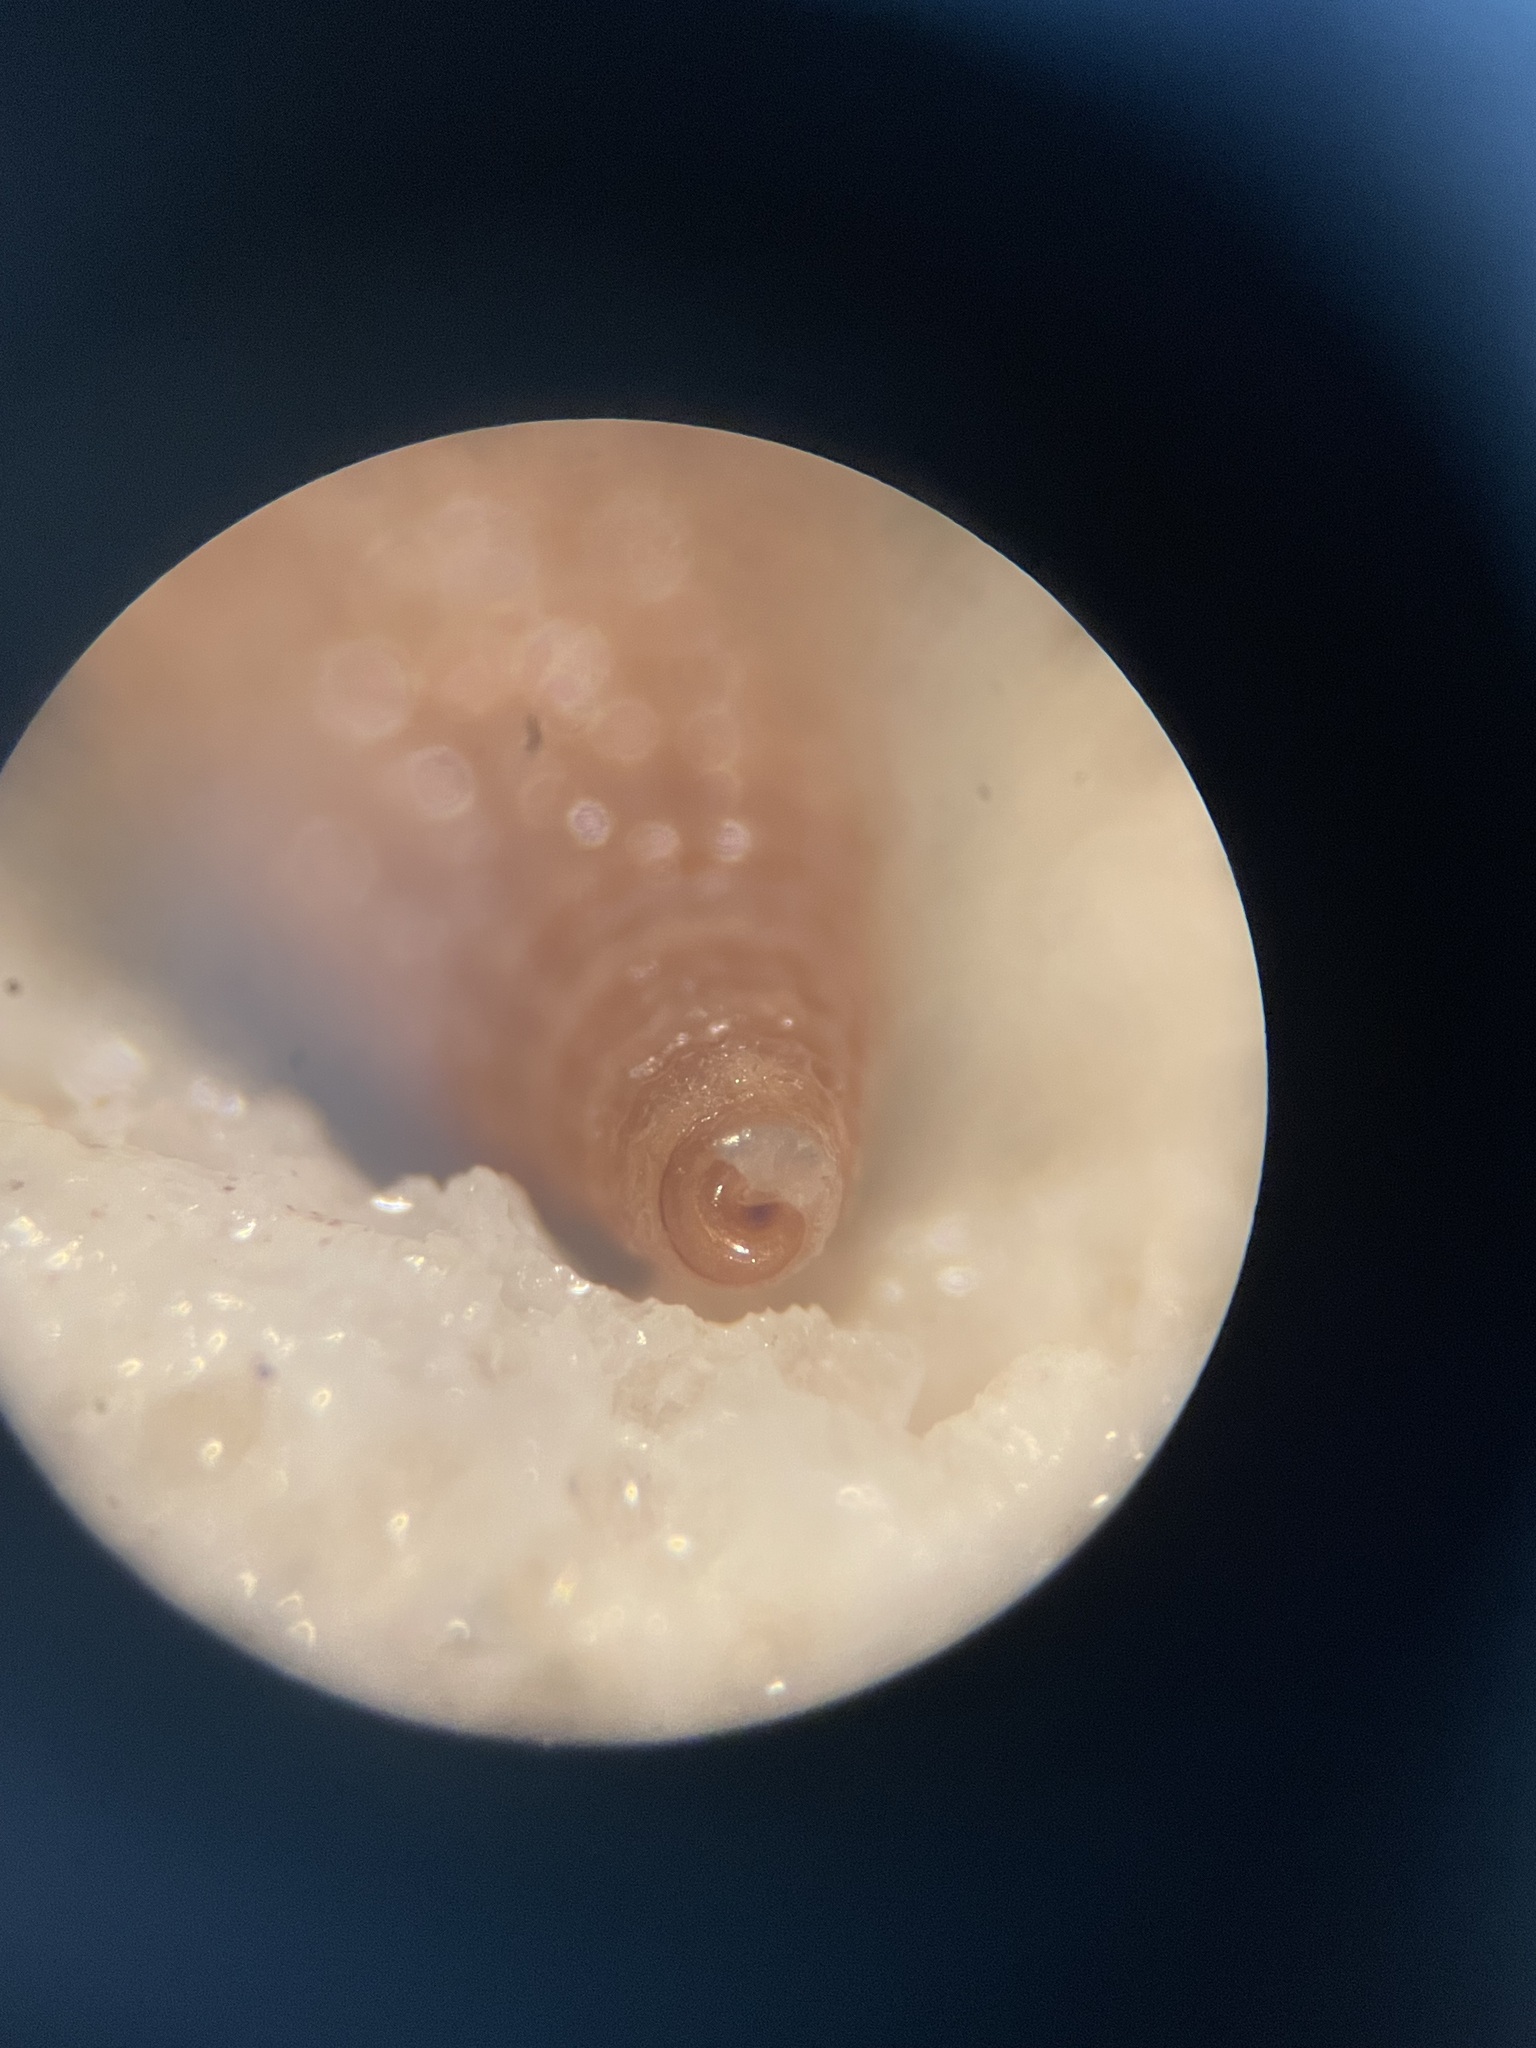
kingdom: Animalia
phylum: Mollusca
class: Gastropoda
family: Newtoniellidae
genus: Retilaskeya
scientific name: Retilaskeya bicolor
